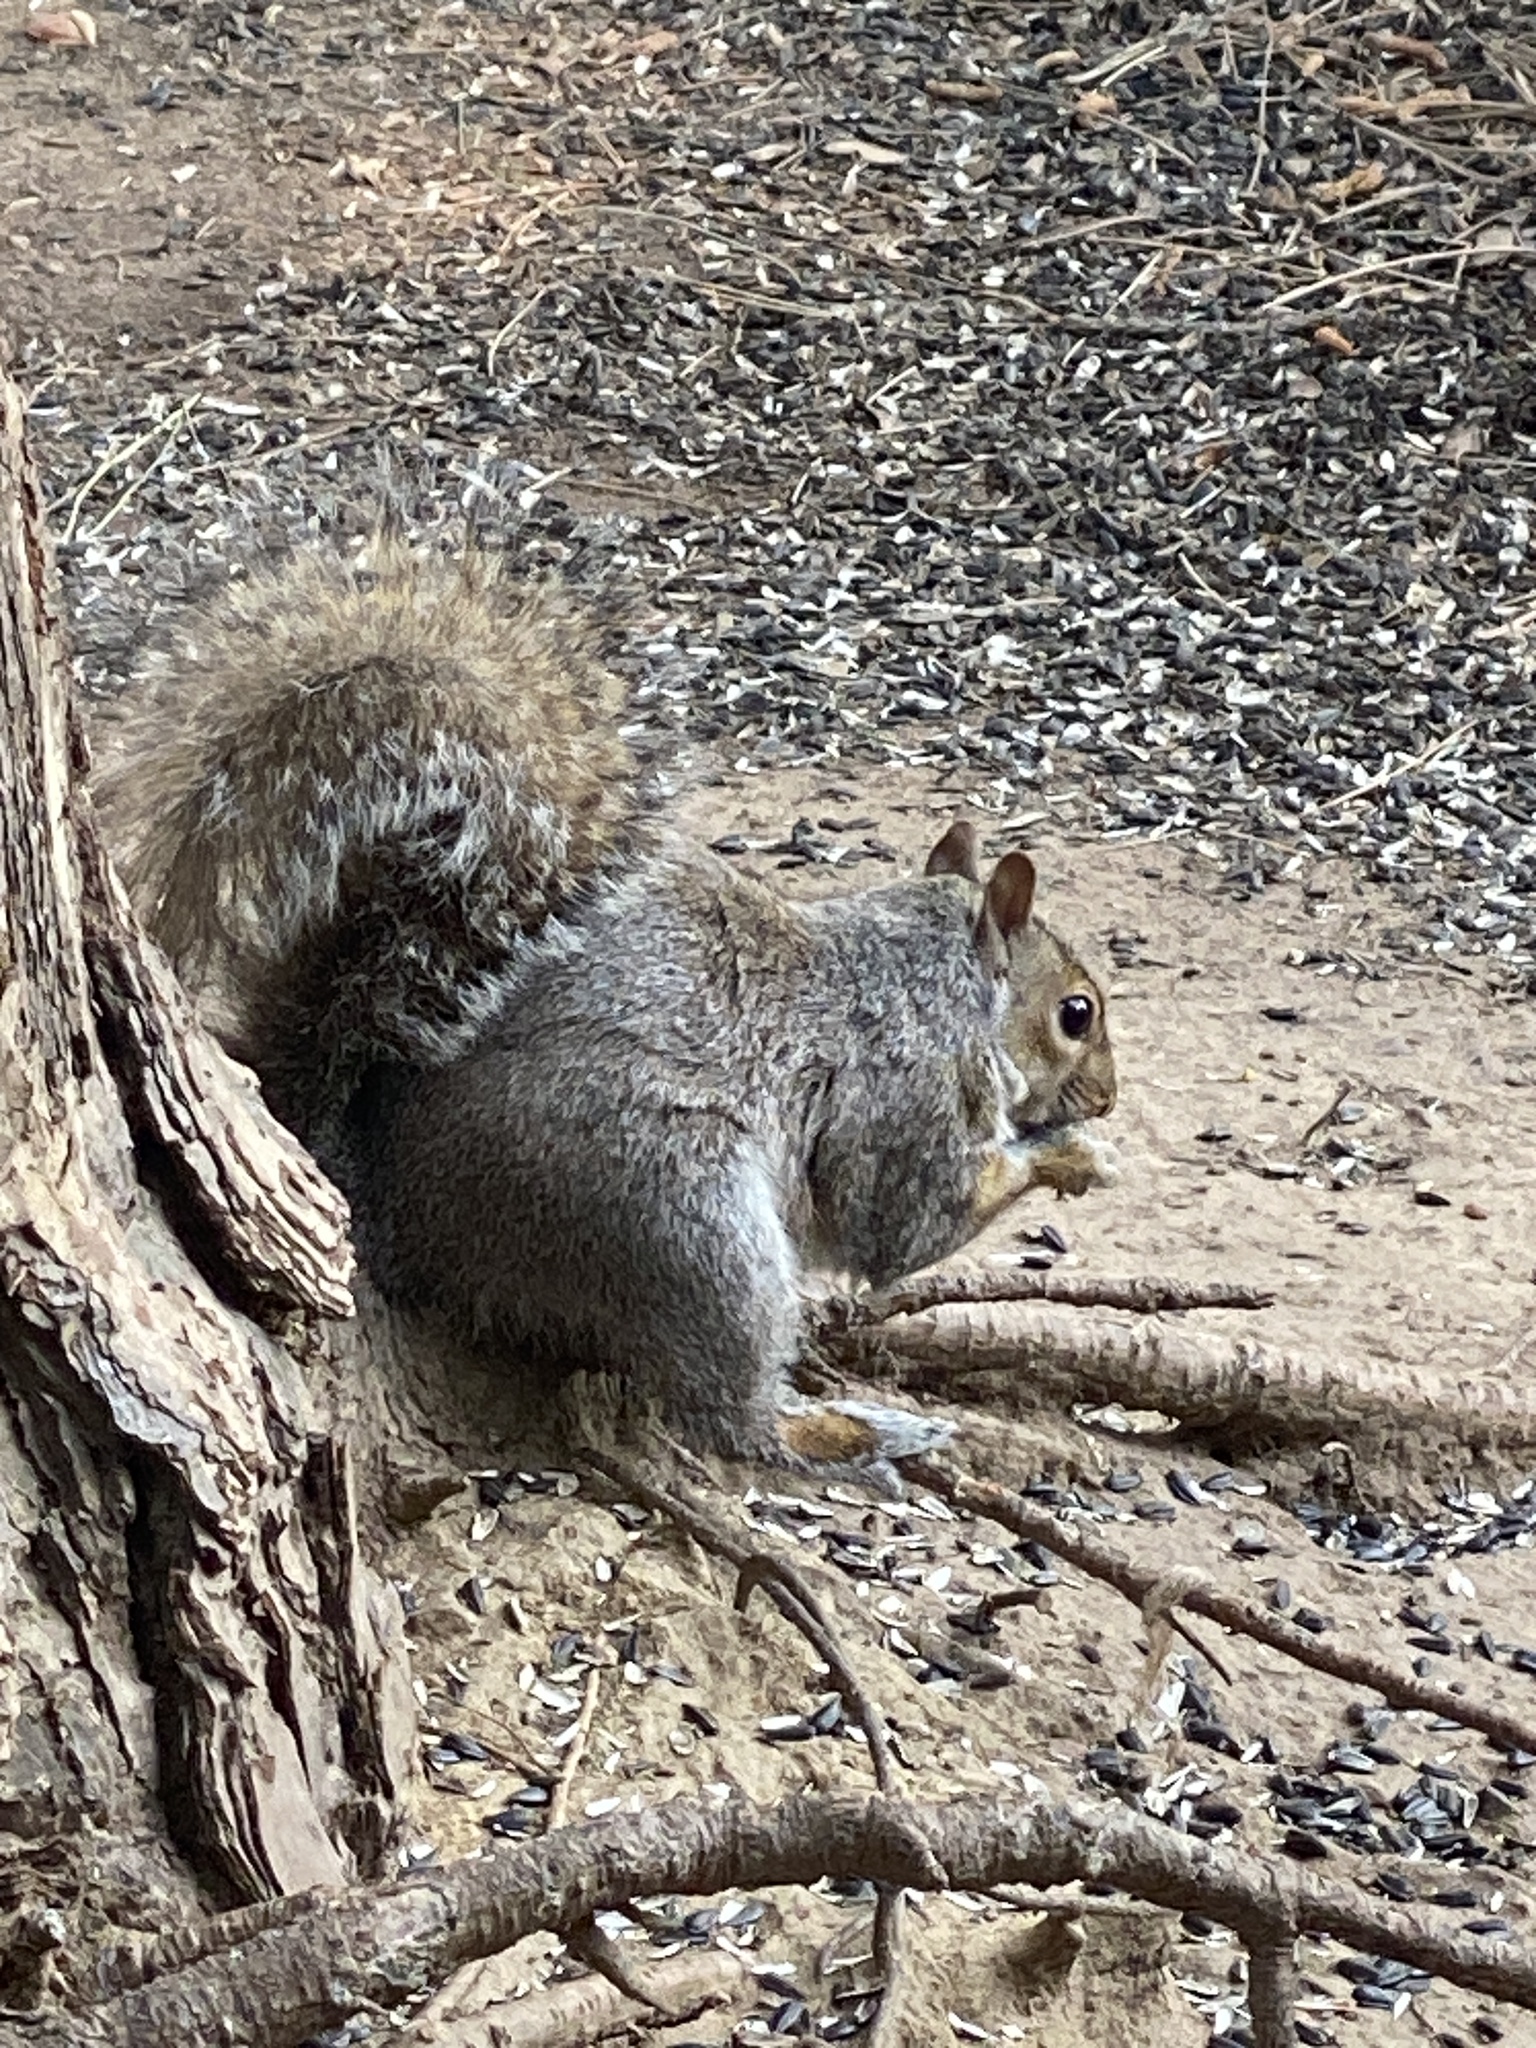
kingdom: Animalia
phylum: Chordata
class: Mammalia
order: Rodentia
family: Sciuridae
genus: Sciurus
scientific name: Sciurus carolinensis
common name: Eastern gray squirrel
